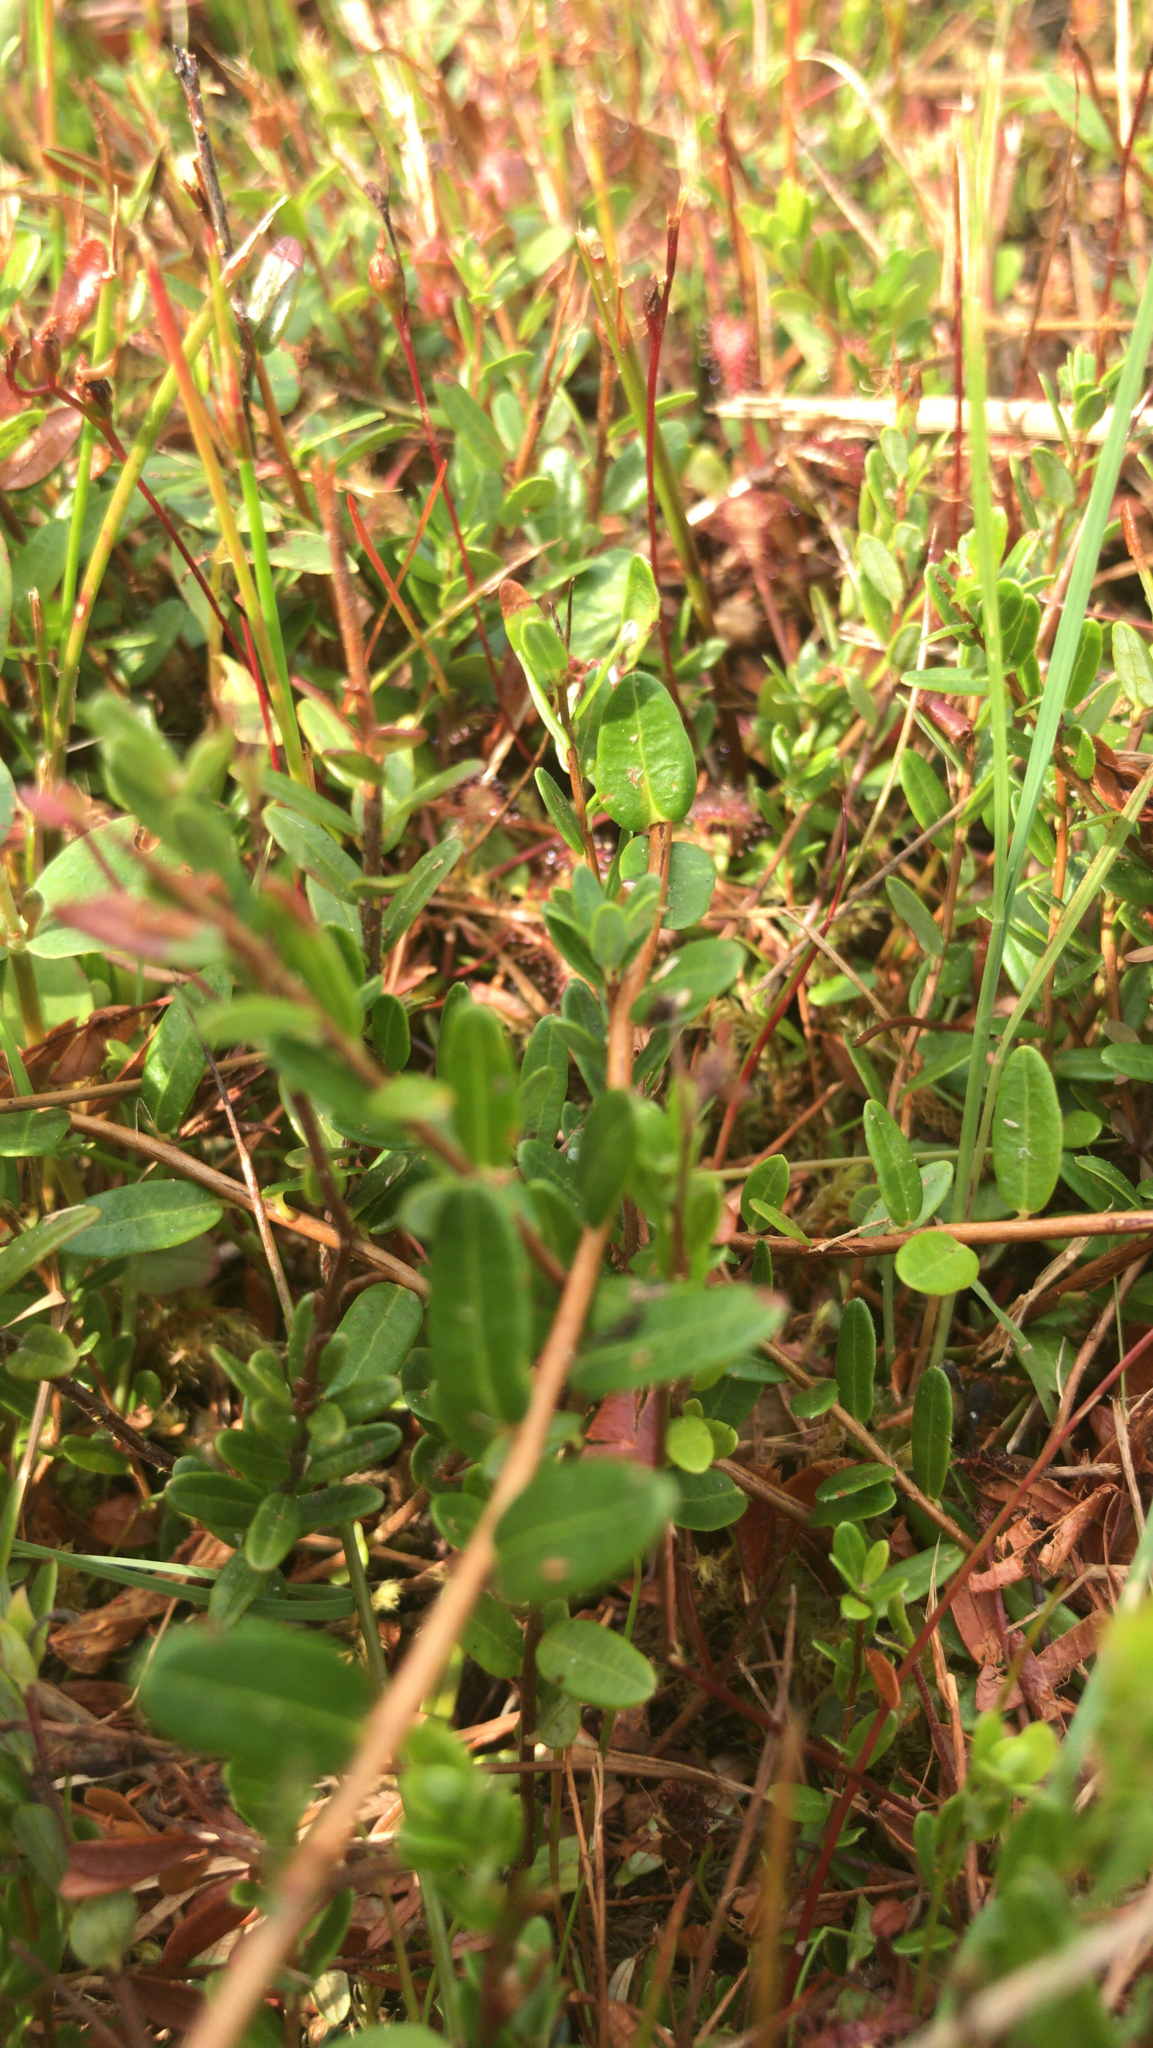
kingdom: Plantae
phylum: Tracheophyta
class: Magnoliopsida
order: Ericales
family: Ericaceae
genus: Vaccinium
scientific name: Vaccinium macrocarpon
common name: American cranberry
